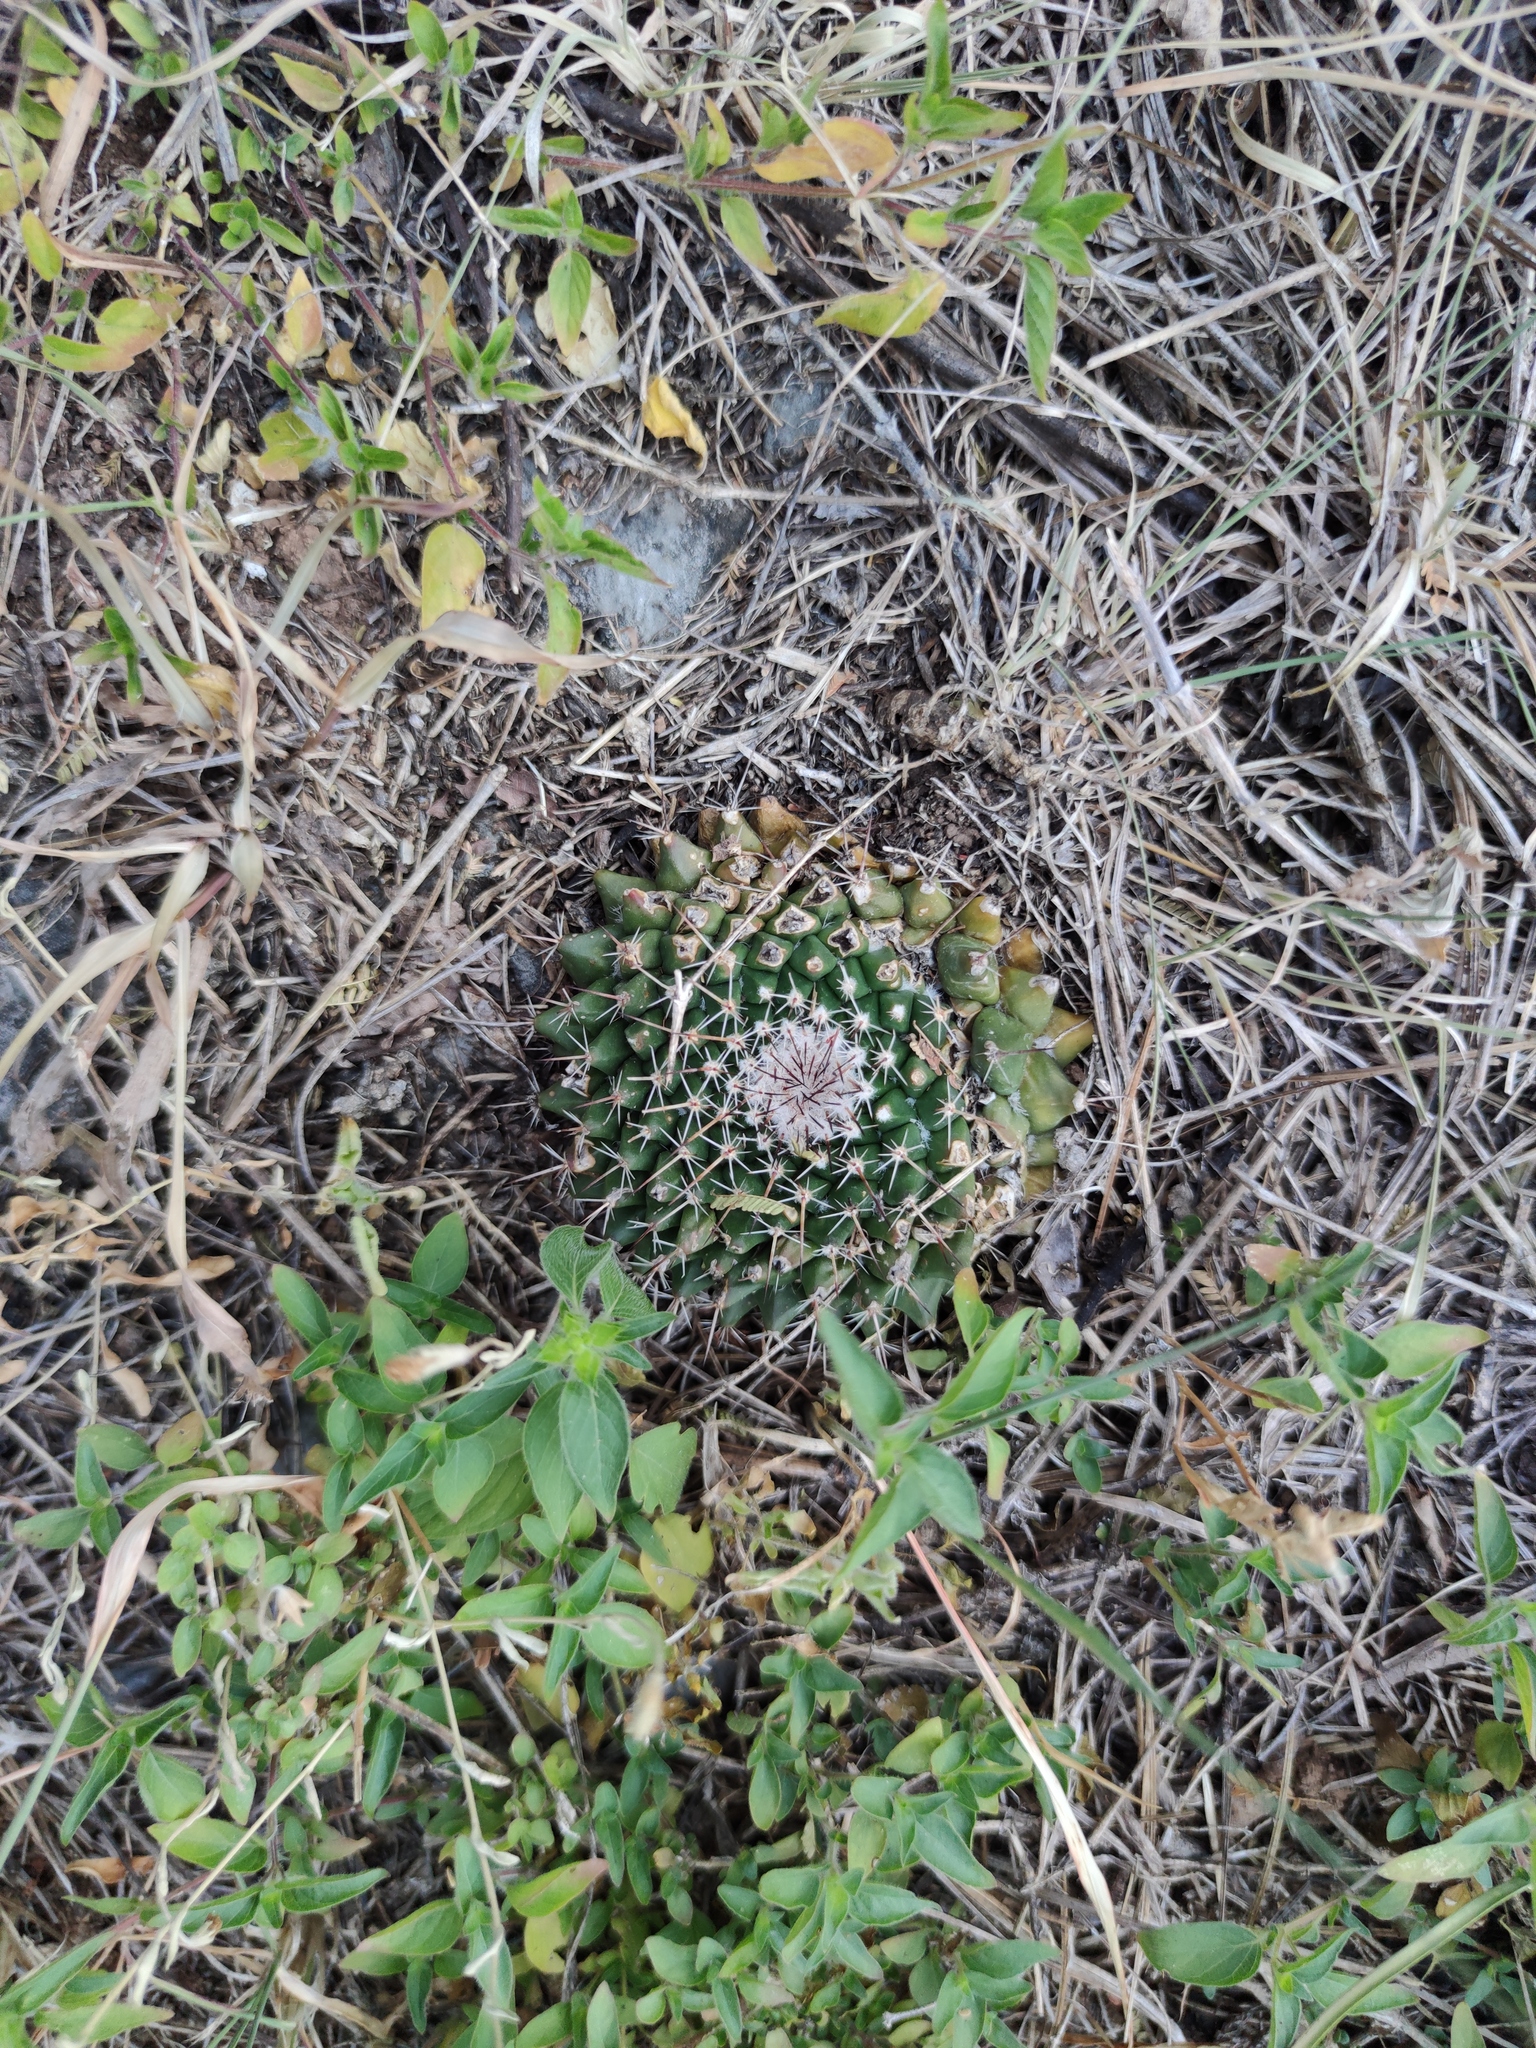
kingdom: Plantae
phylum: Tracheophyta
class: Magnoliopsida
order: Caryophyllales
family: Cactaceae
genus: Mammillaria
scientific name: Mammillaria winterae
